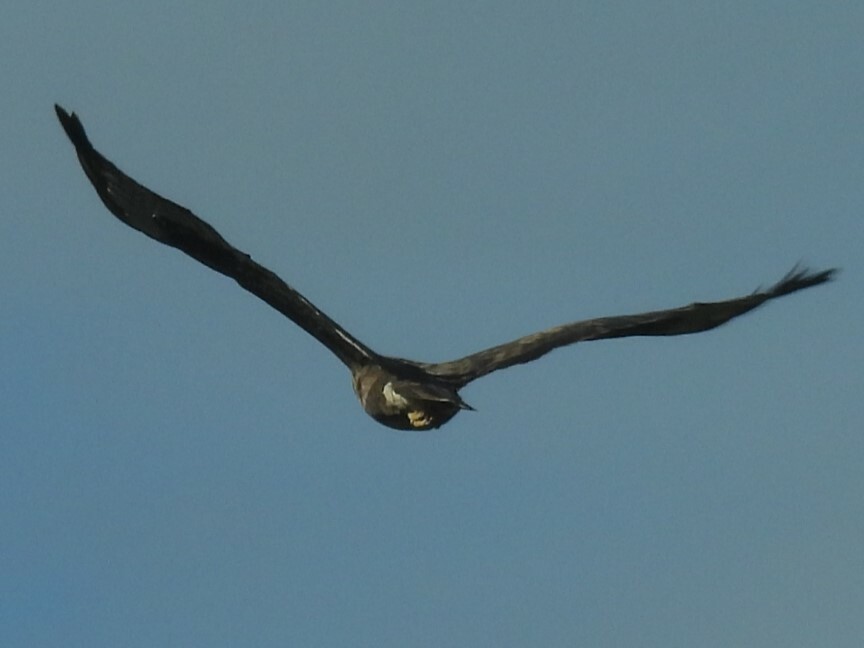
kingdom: Animalia
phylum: Chordata
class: Aves
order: Accipitriformes
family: Accipitridae
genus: Buteo
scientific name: Buteo buteo
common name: Common buzzard
